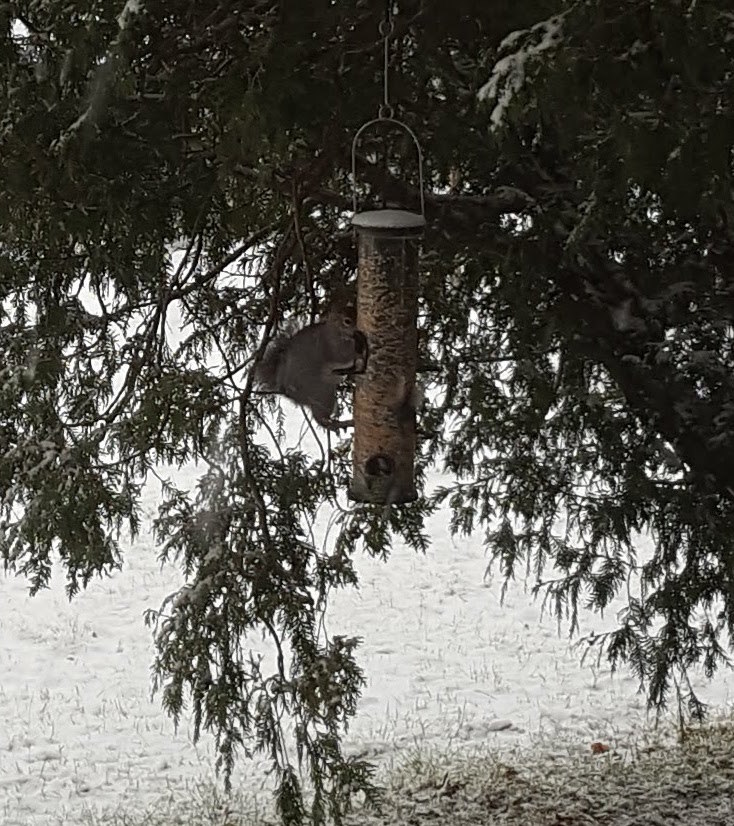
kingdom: Animalia
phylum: Chordata
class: Mammalia
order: Rodentia
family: Sciuridae
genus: Sciurus
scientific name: Sciurus carolinensis
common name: Eastern gray squirrel
